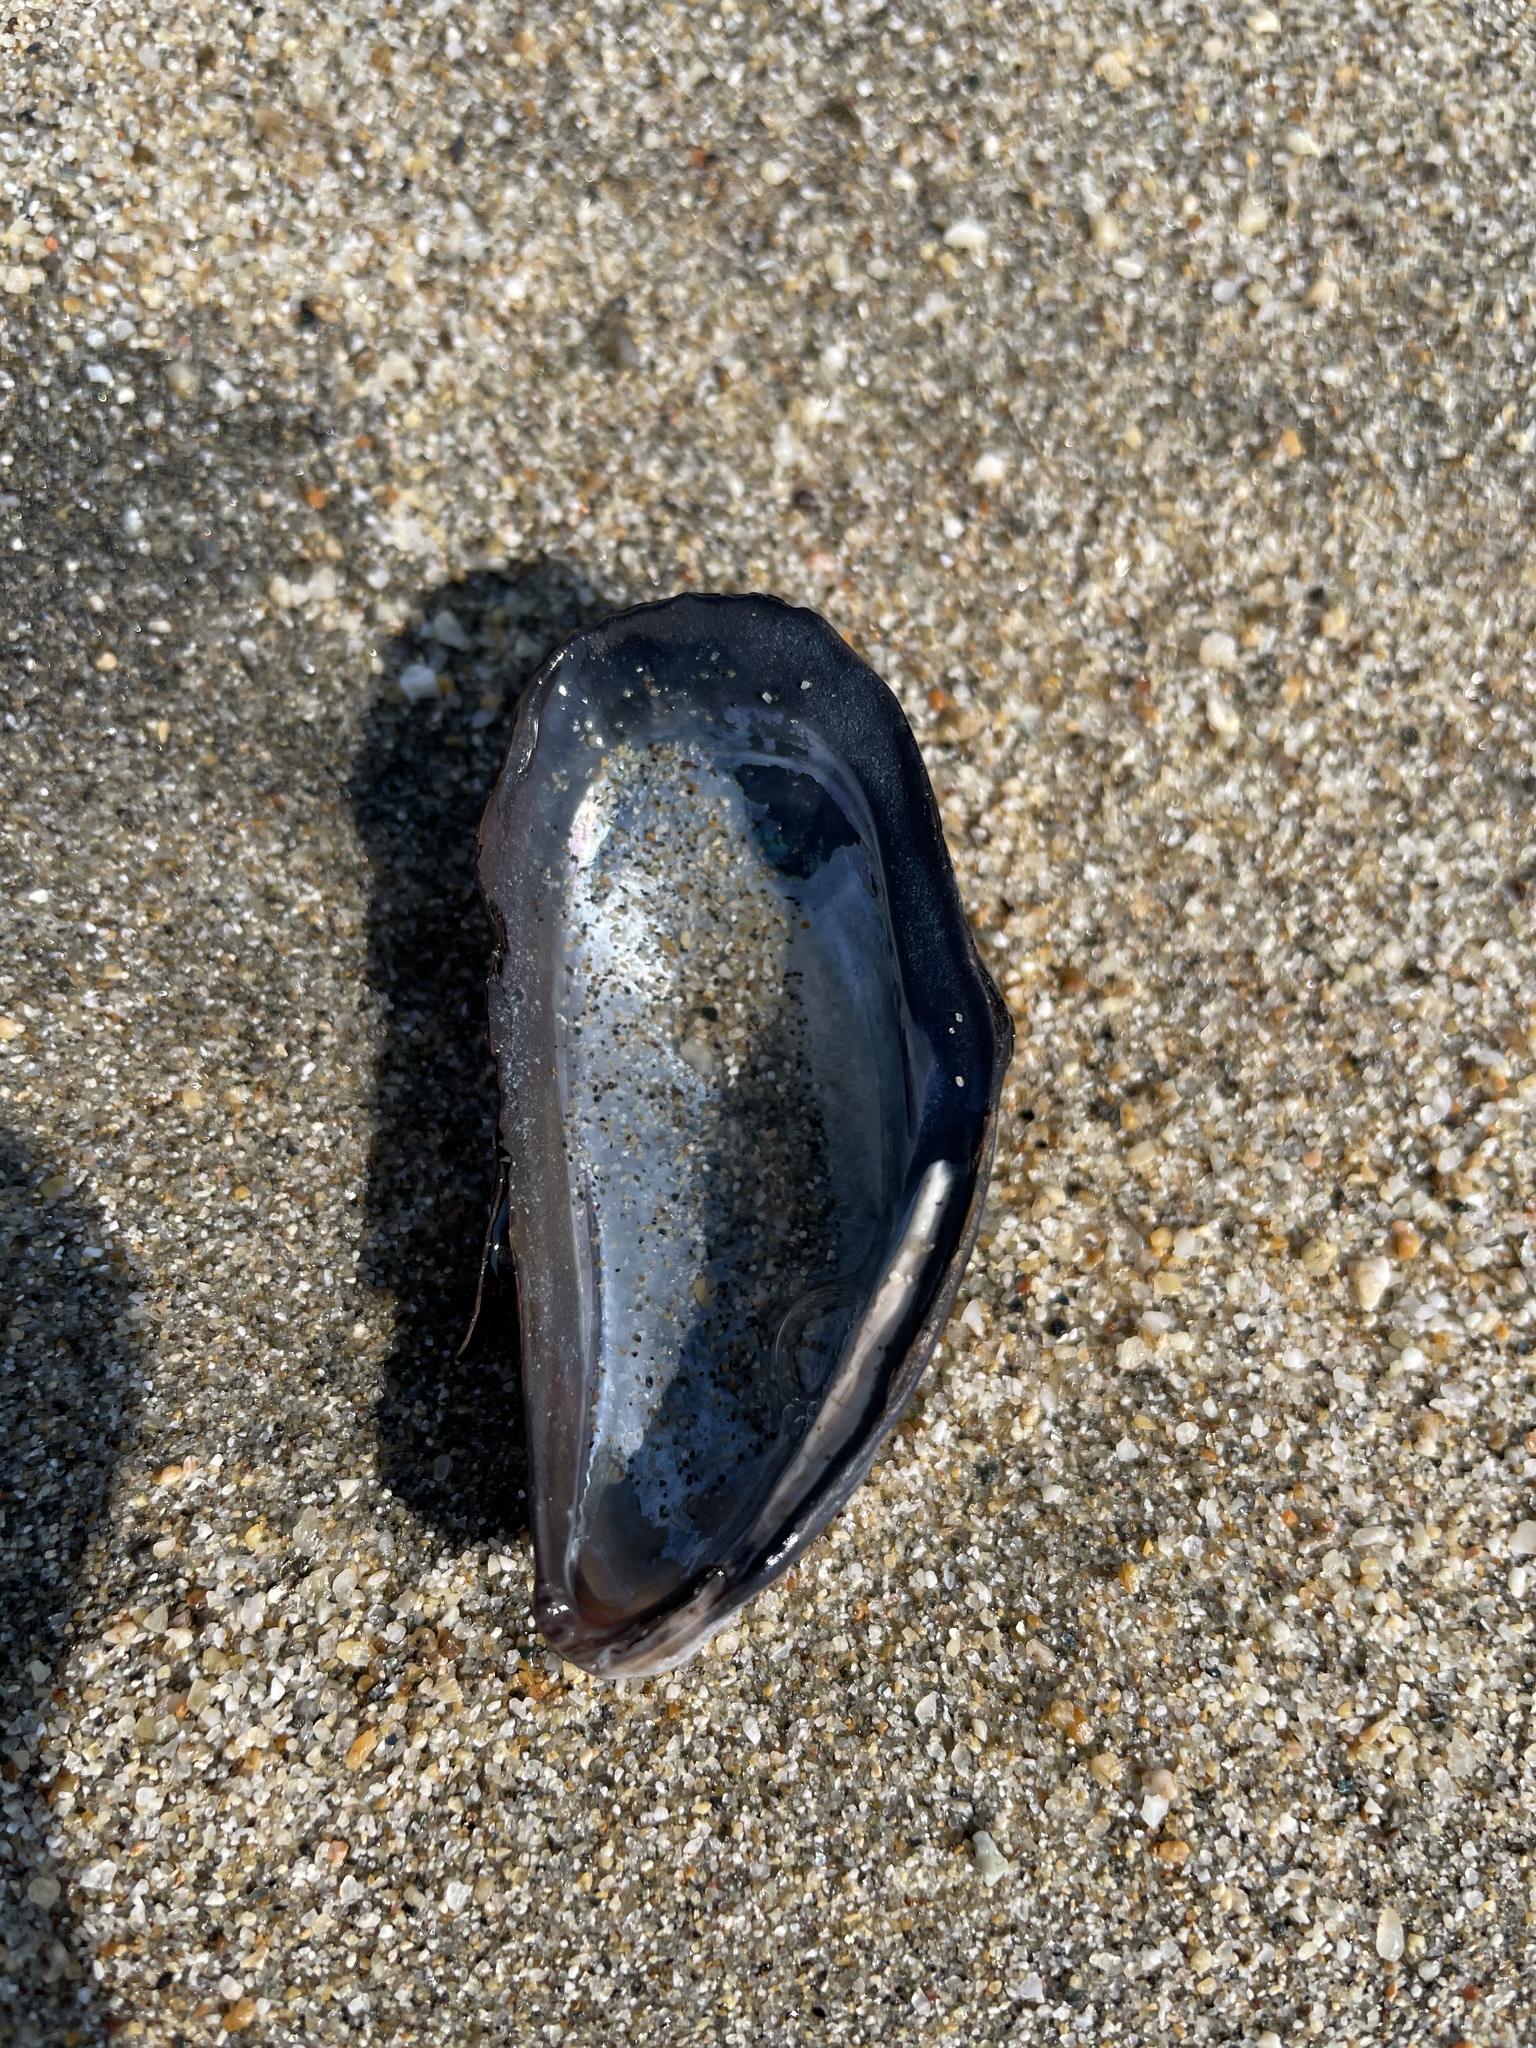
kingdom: Animalia
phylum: Mollusca
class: Bivalvia
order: Mytilida
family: Mytilidae
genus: Mytilus
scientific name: Mytilus californianus
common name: California mussel
